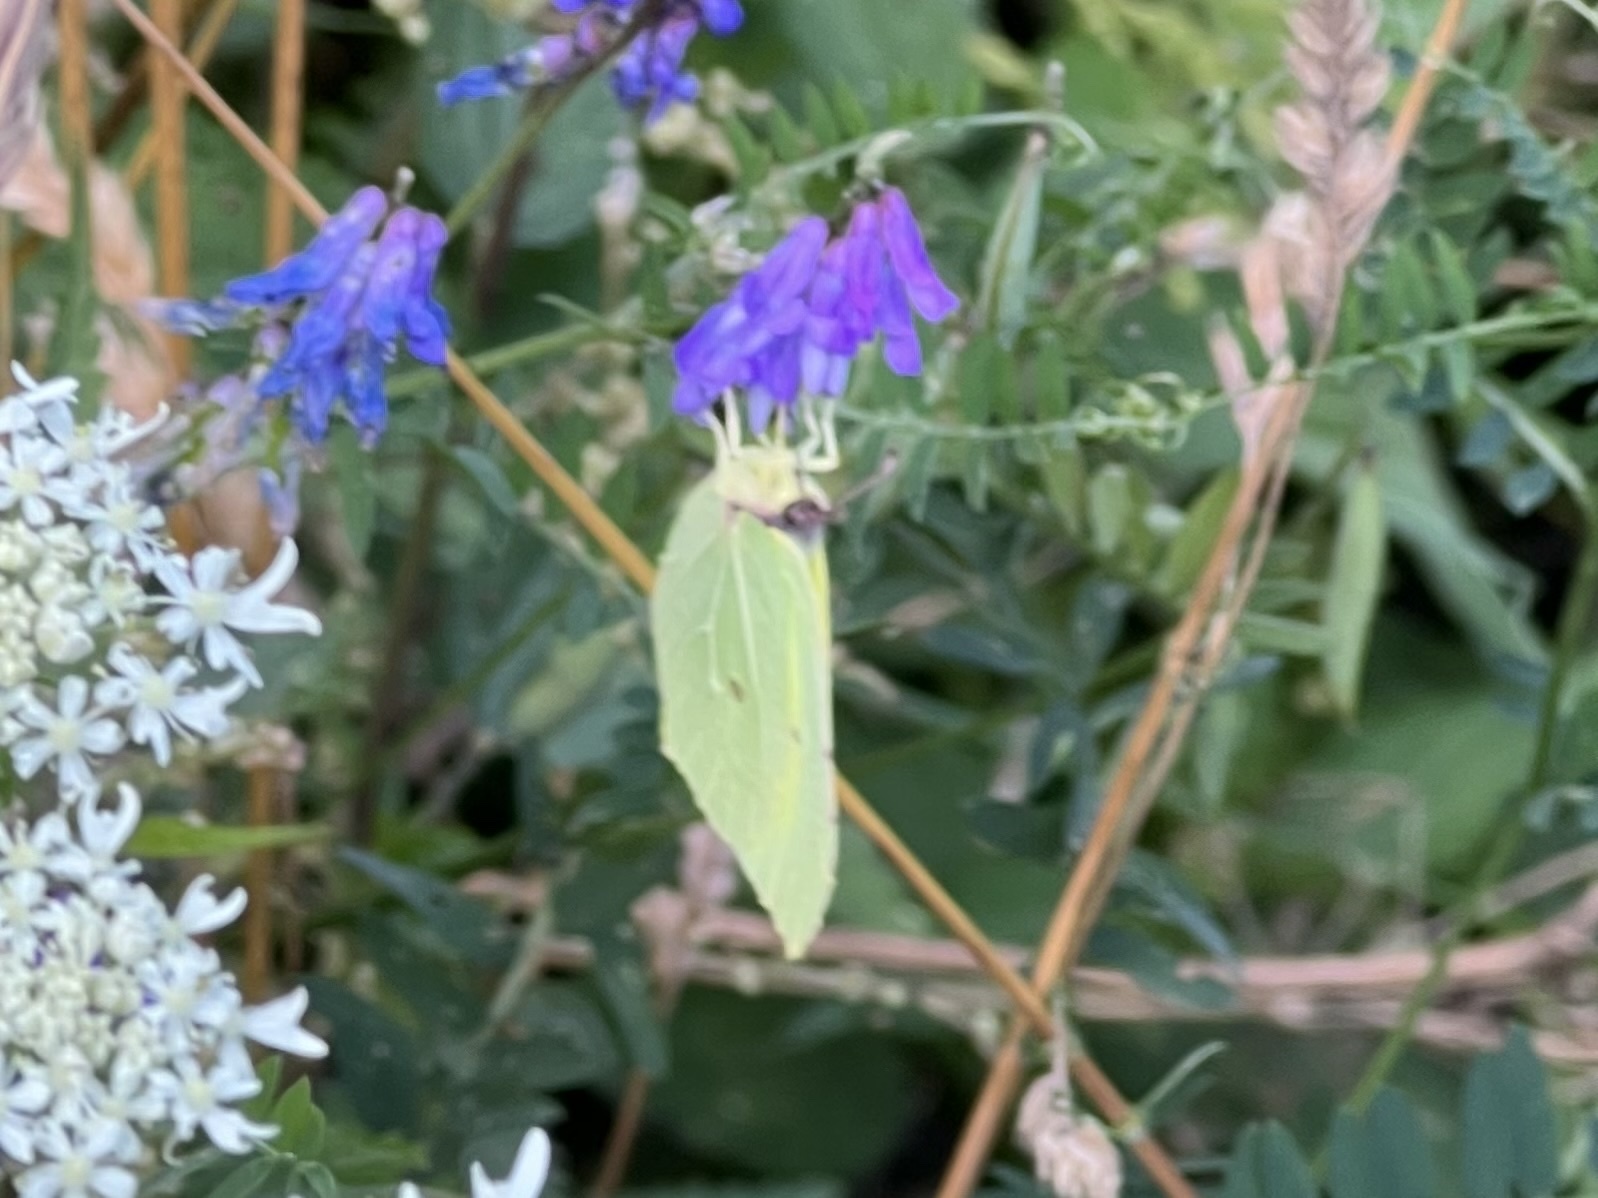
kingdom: Animalia
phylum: Arthropoda
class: Insecta
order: Lepidoptera
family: Pieridae
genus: Gonepteryx
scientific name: Gonepteryx rhamni
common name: Brimstone
